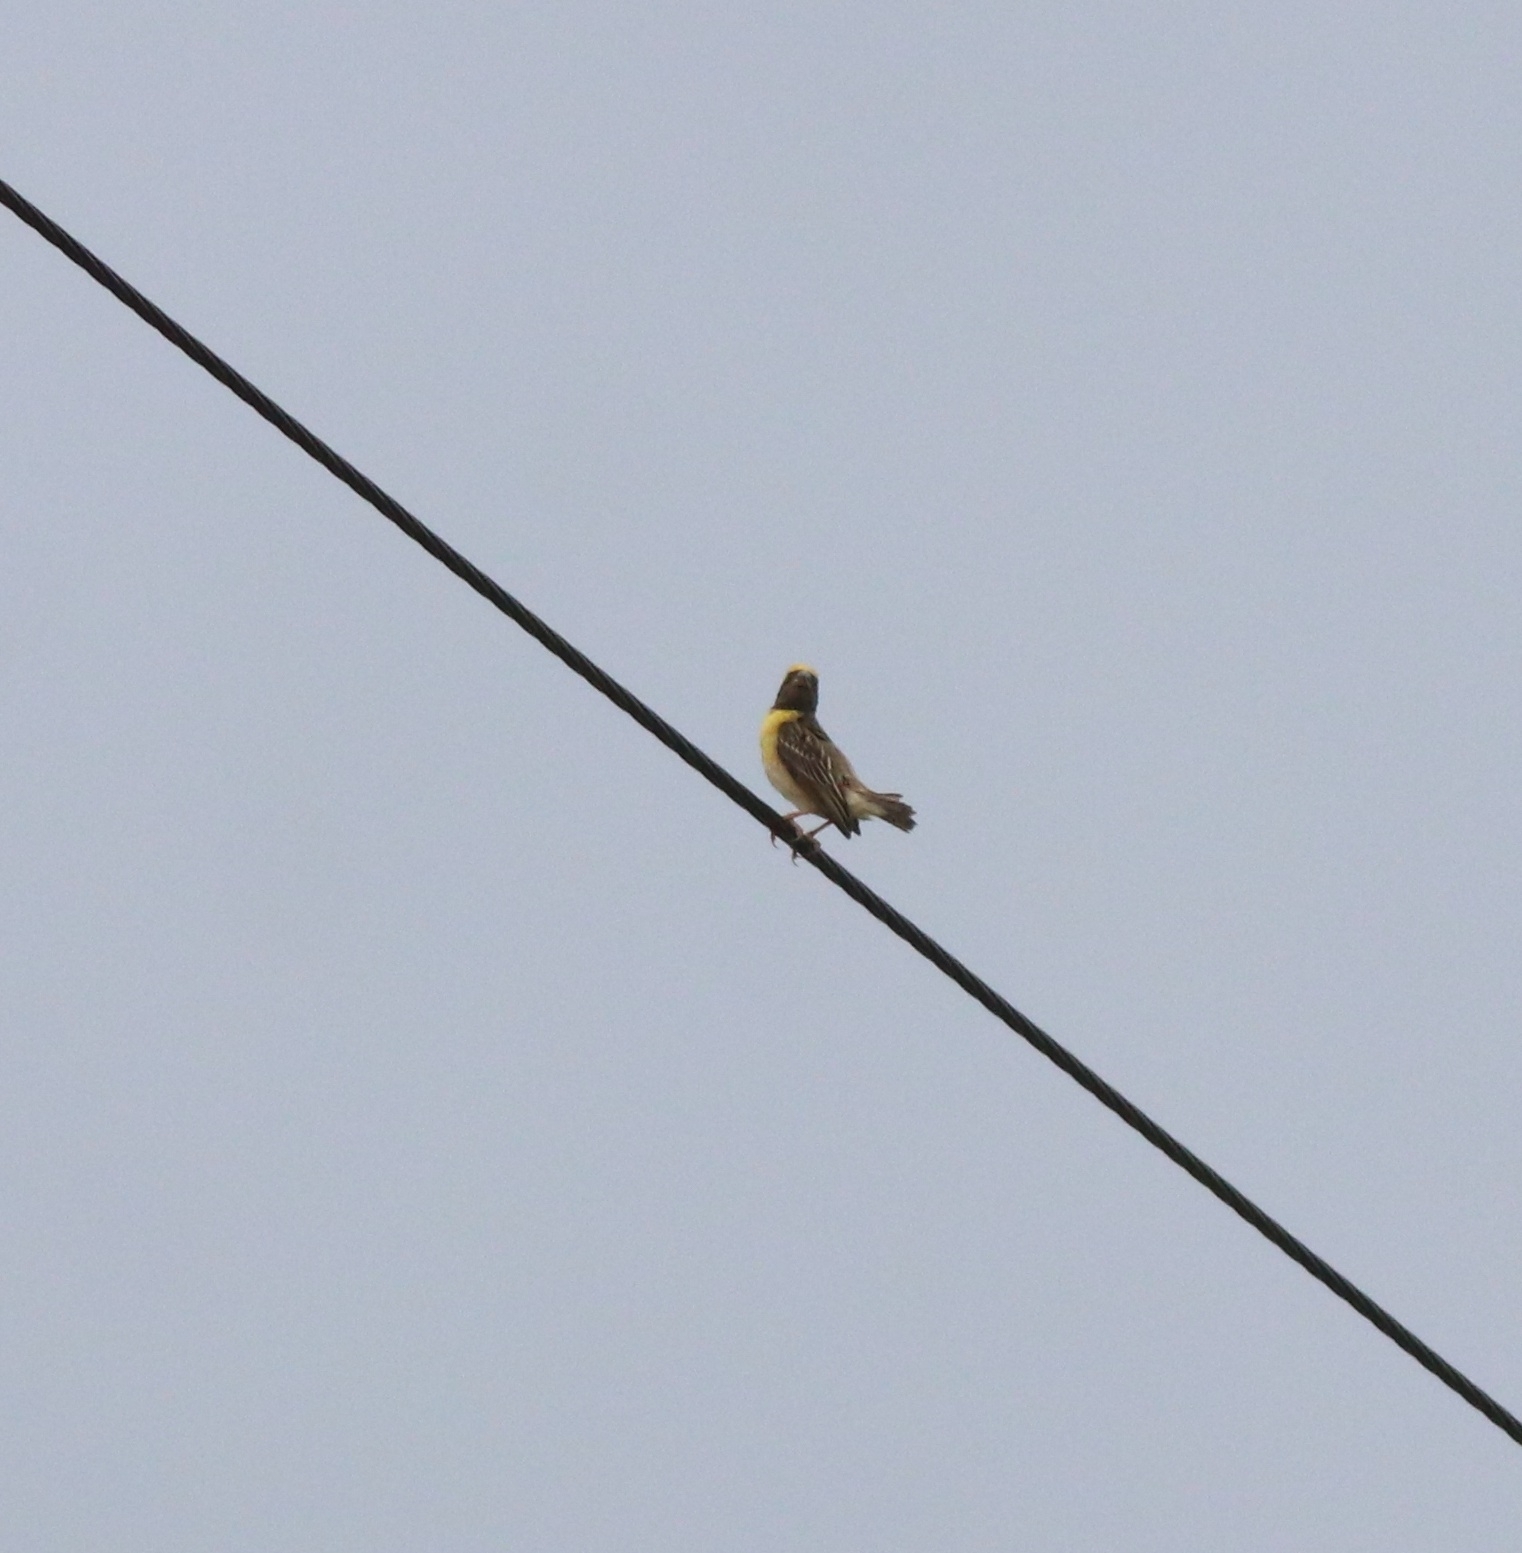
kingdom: Animalia
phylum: Chordata
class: Aves
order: Passeriformes
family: Ploceidae
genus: Ploceus
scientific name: Ploceus philippinus
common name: Baya weaver
